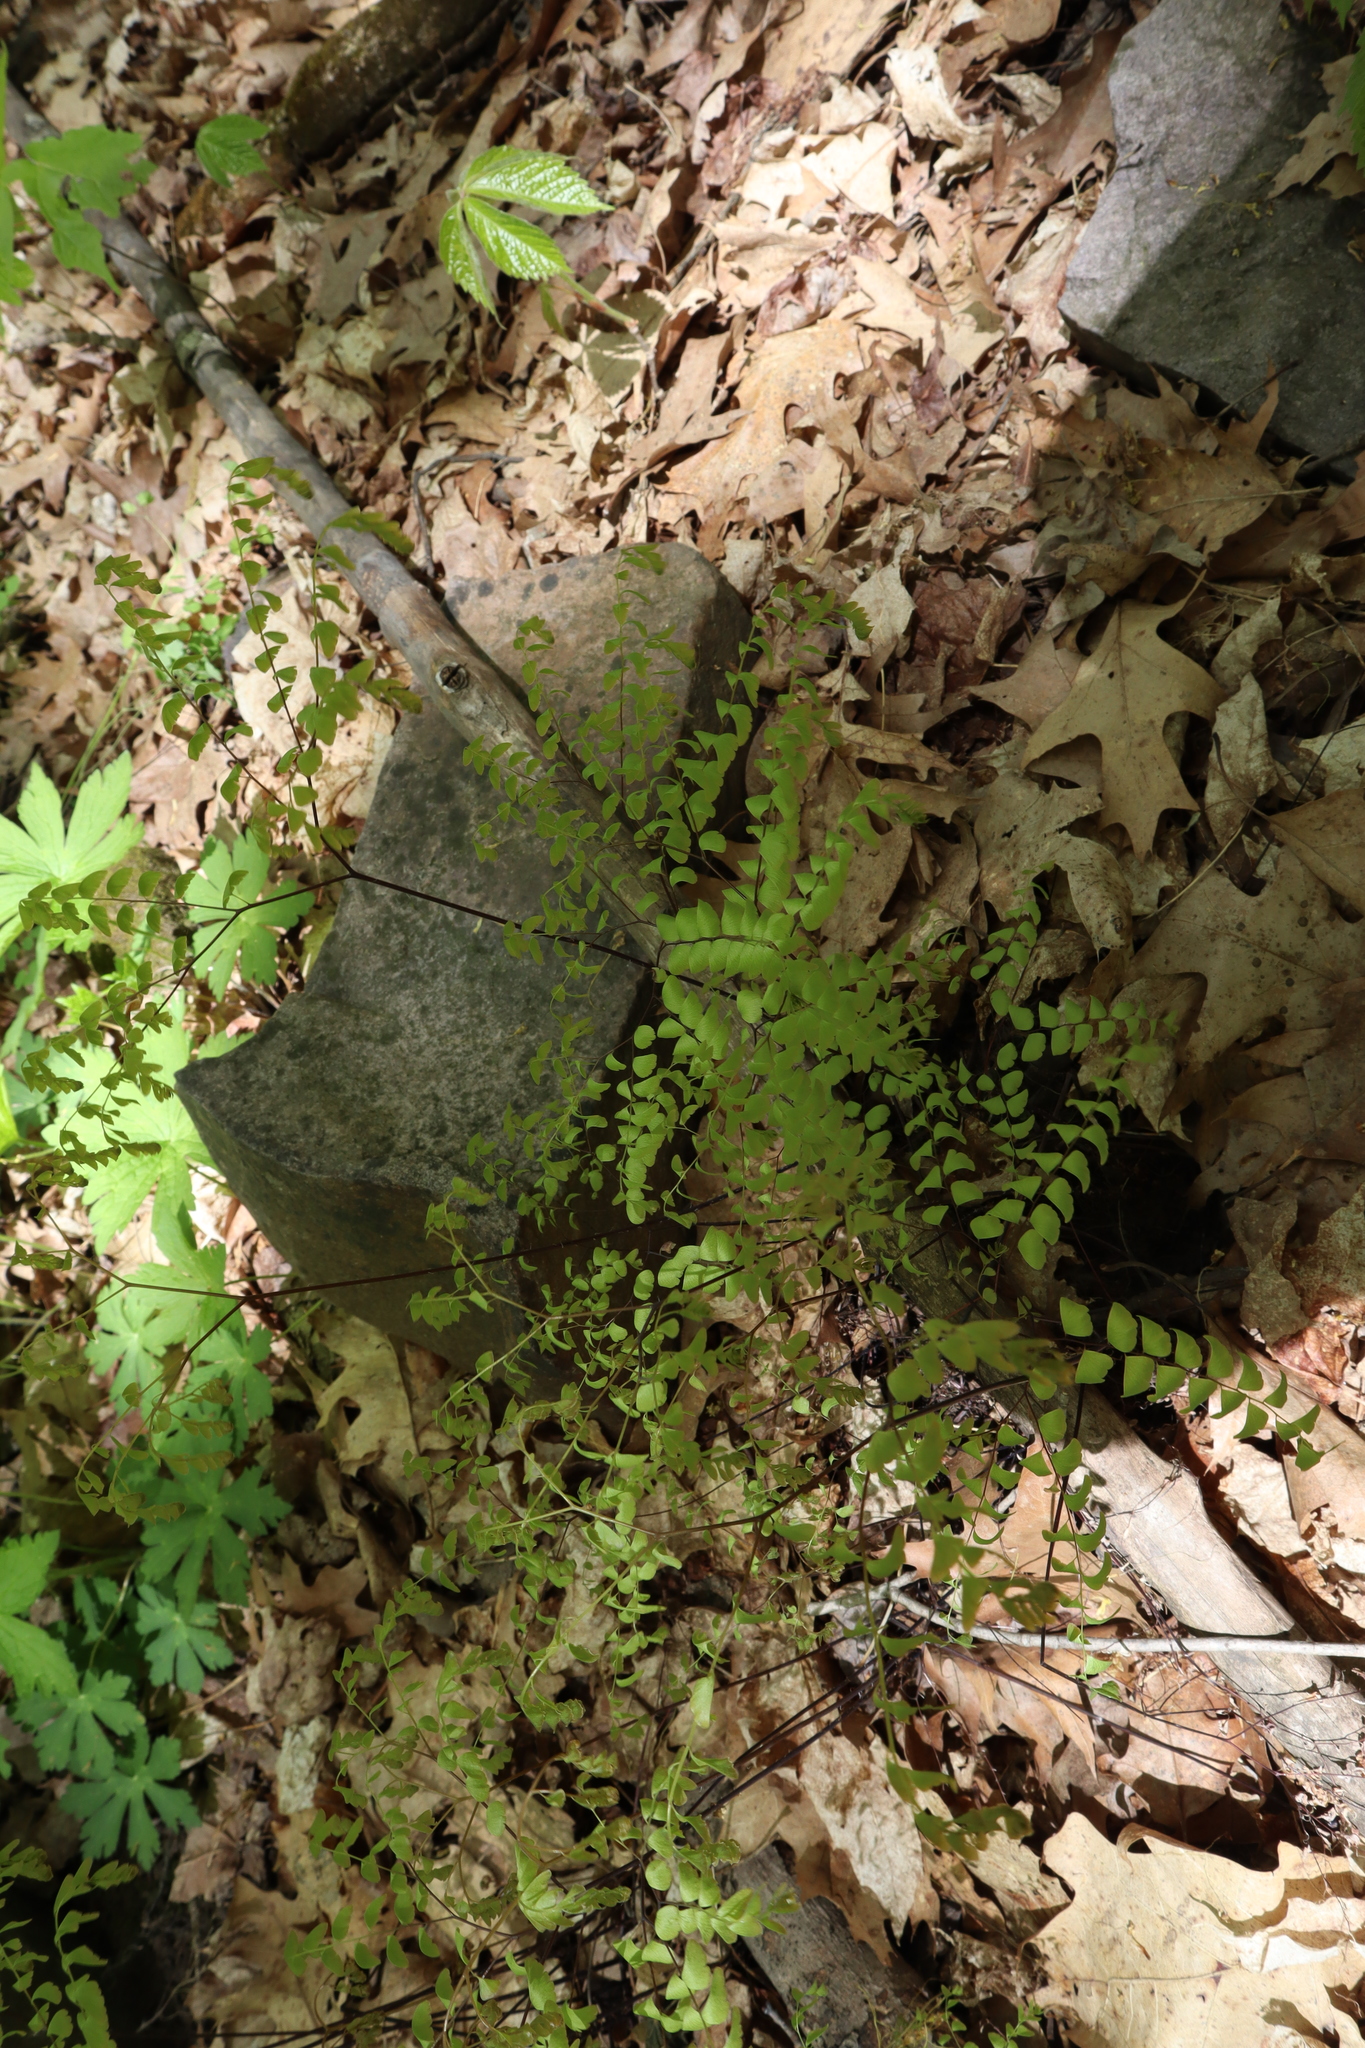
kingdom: Plantae
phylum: Tracheophyta
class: Polypodiopsida
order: Polypodiales
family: Pteridaceae
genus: Adiantum
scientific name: Adiantum pedatum
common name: Five-finger fern
